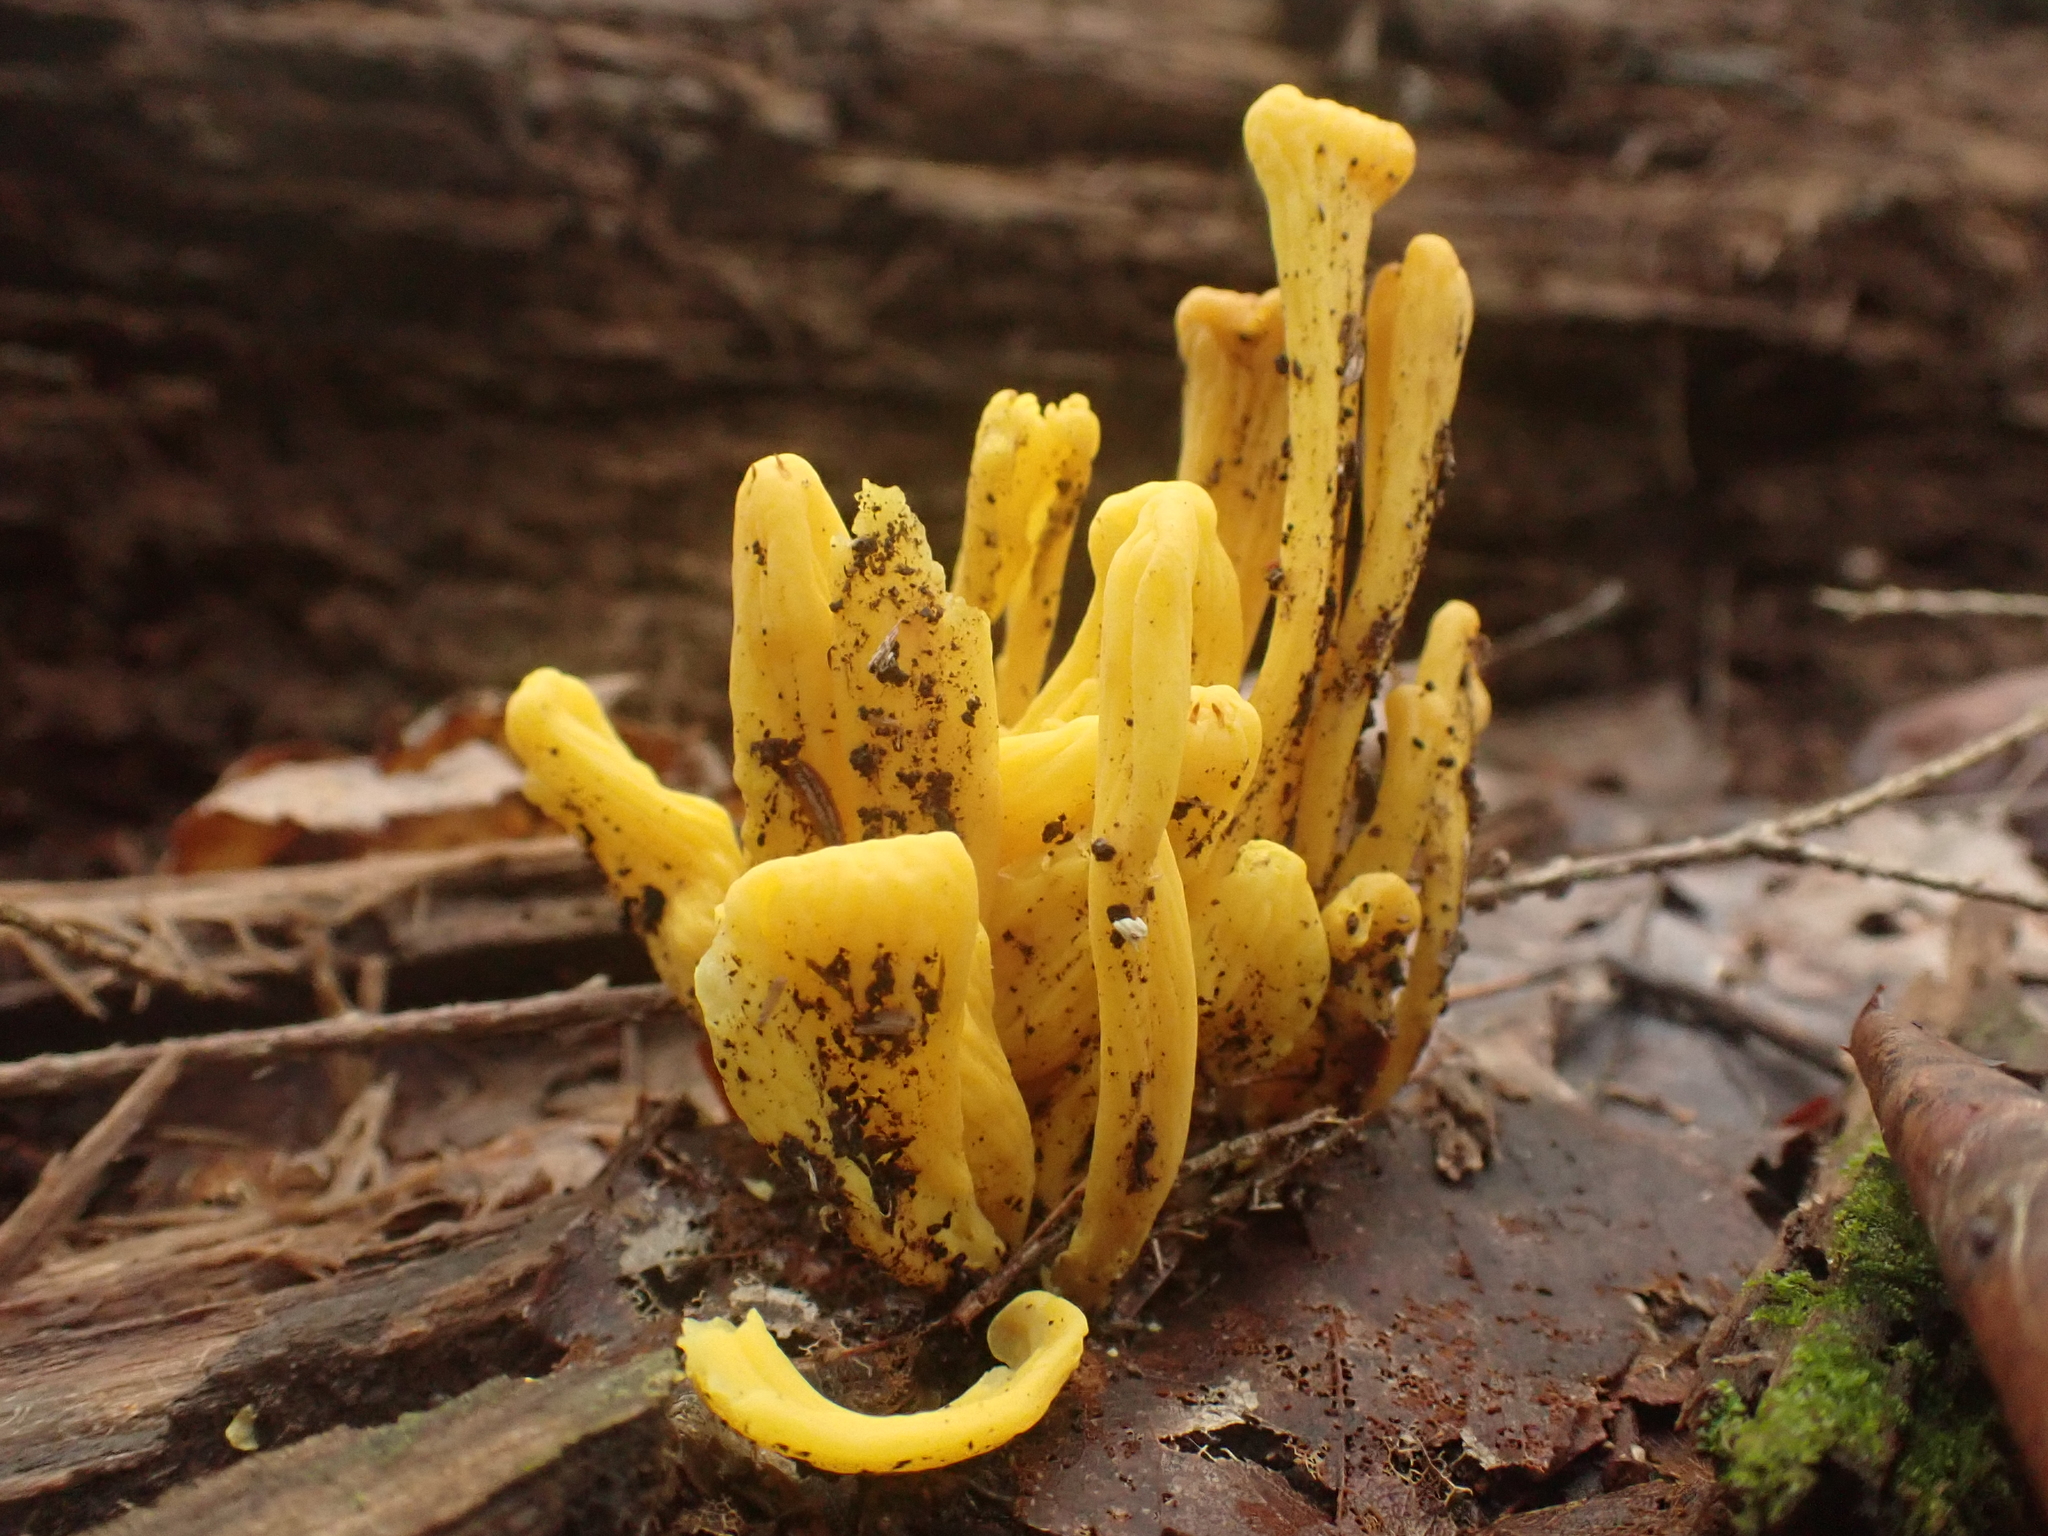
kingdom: Fungi
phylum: Basidiomycota
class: Agaricomycetes
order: Agaricales
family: Clavariaceae
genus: Clavulinopsis
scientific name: Clavulinopsis fusiformis
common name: Golden spindles
